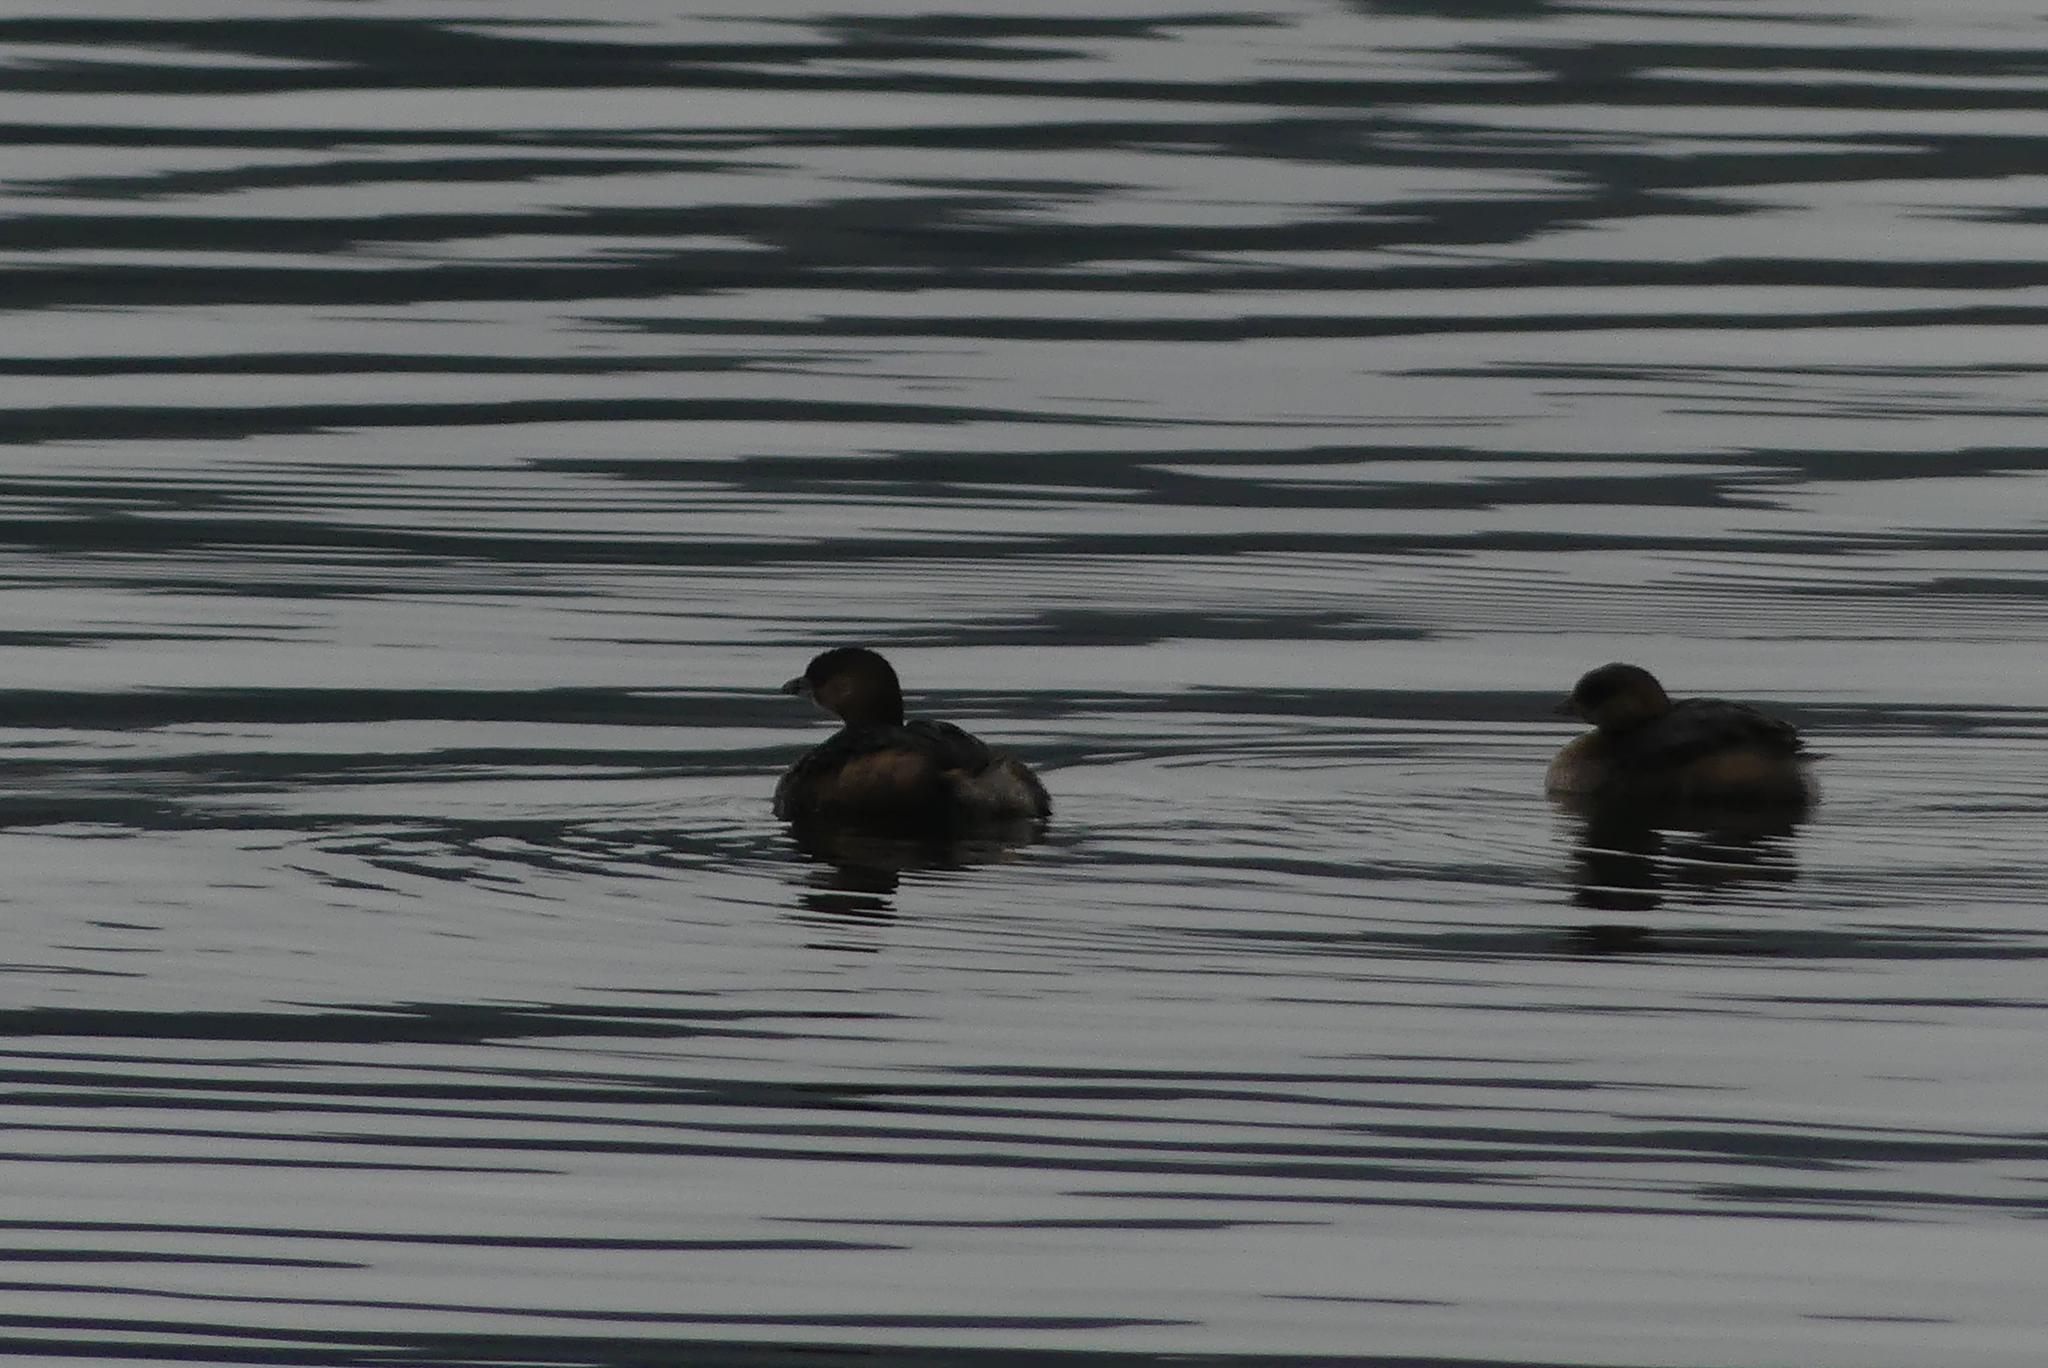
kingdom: Animalia
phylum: Chordata
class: Aves
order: Podicipediformes
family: Podicipedidae
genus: Podilymbus
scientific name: Podilymbus podiceps
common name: Pied-billed grebe
